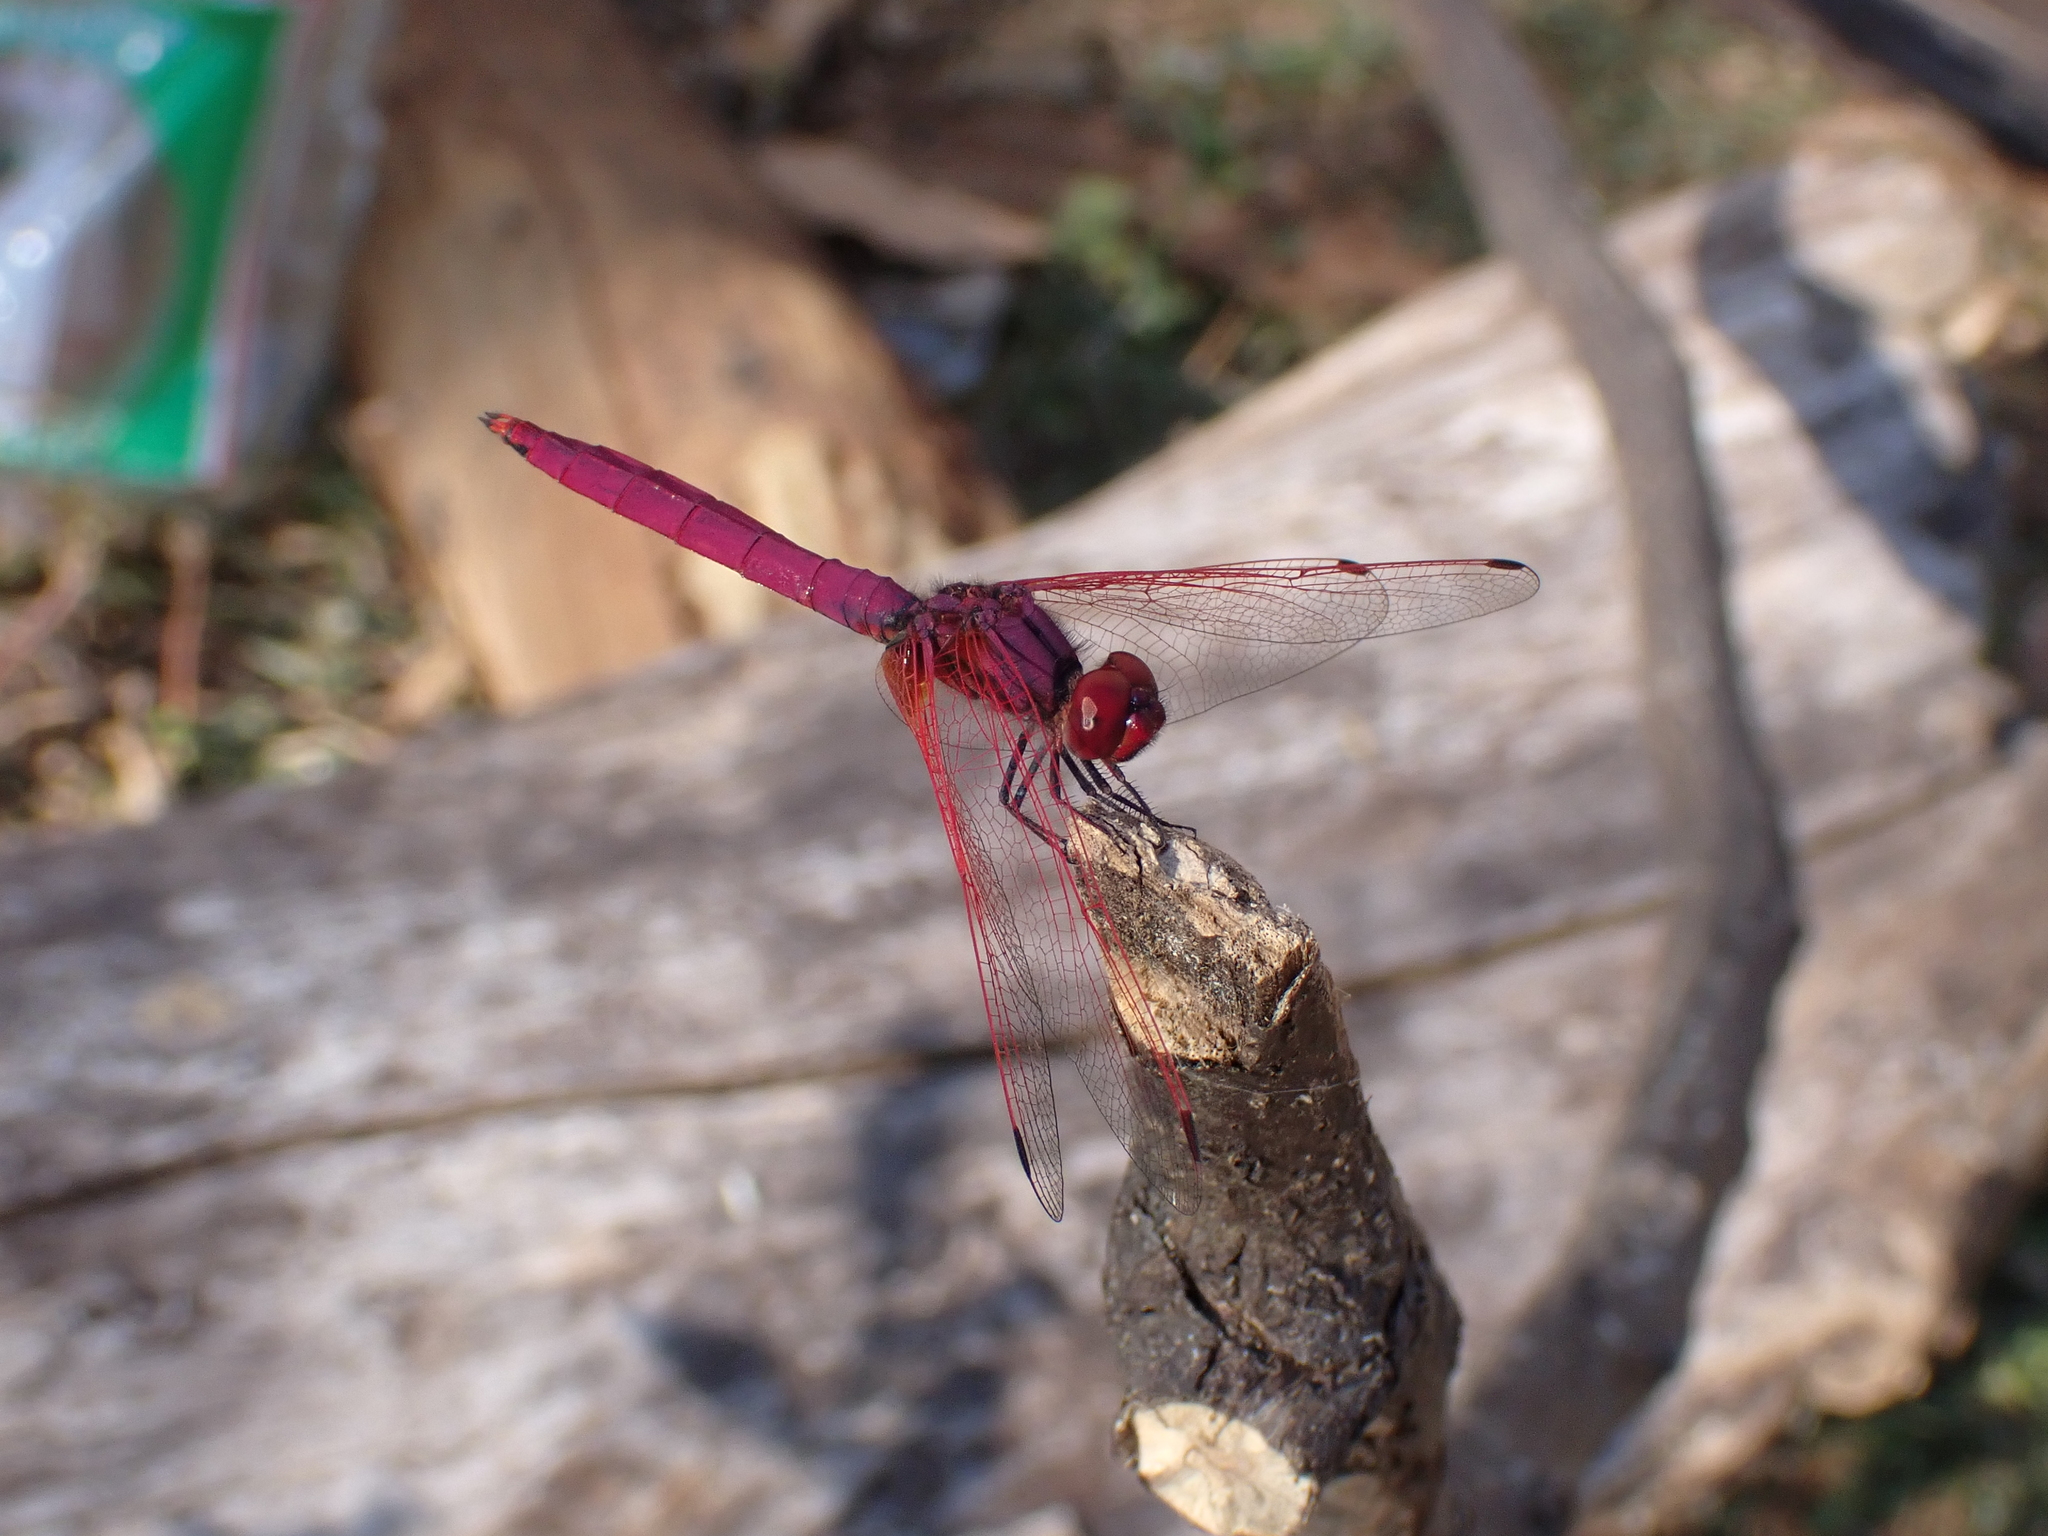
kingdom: Animalia
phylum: Arthropoda
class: Insecta
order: Odonata
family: Libellulidae
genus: Trithemis
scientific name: Trithemis aurora
